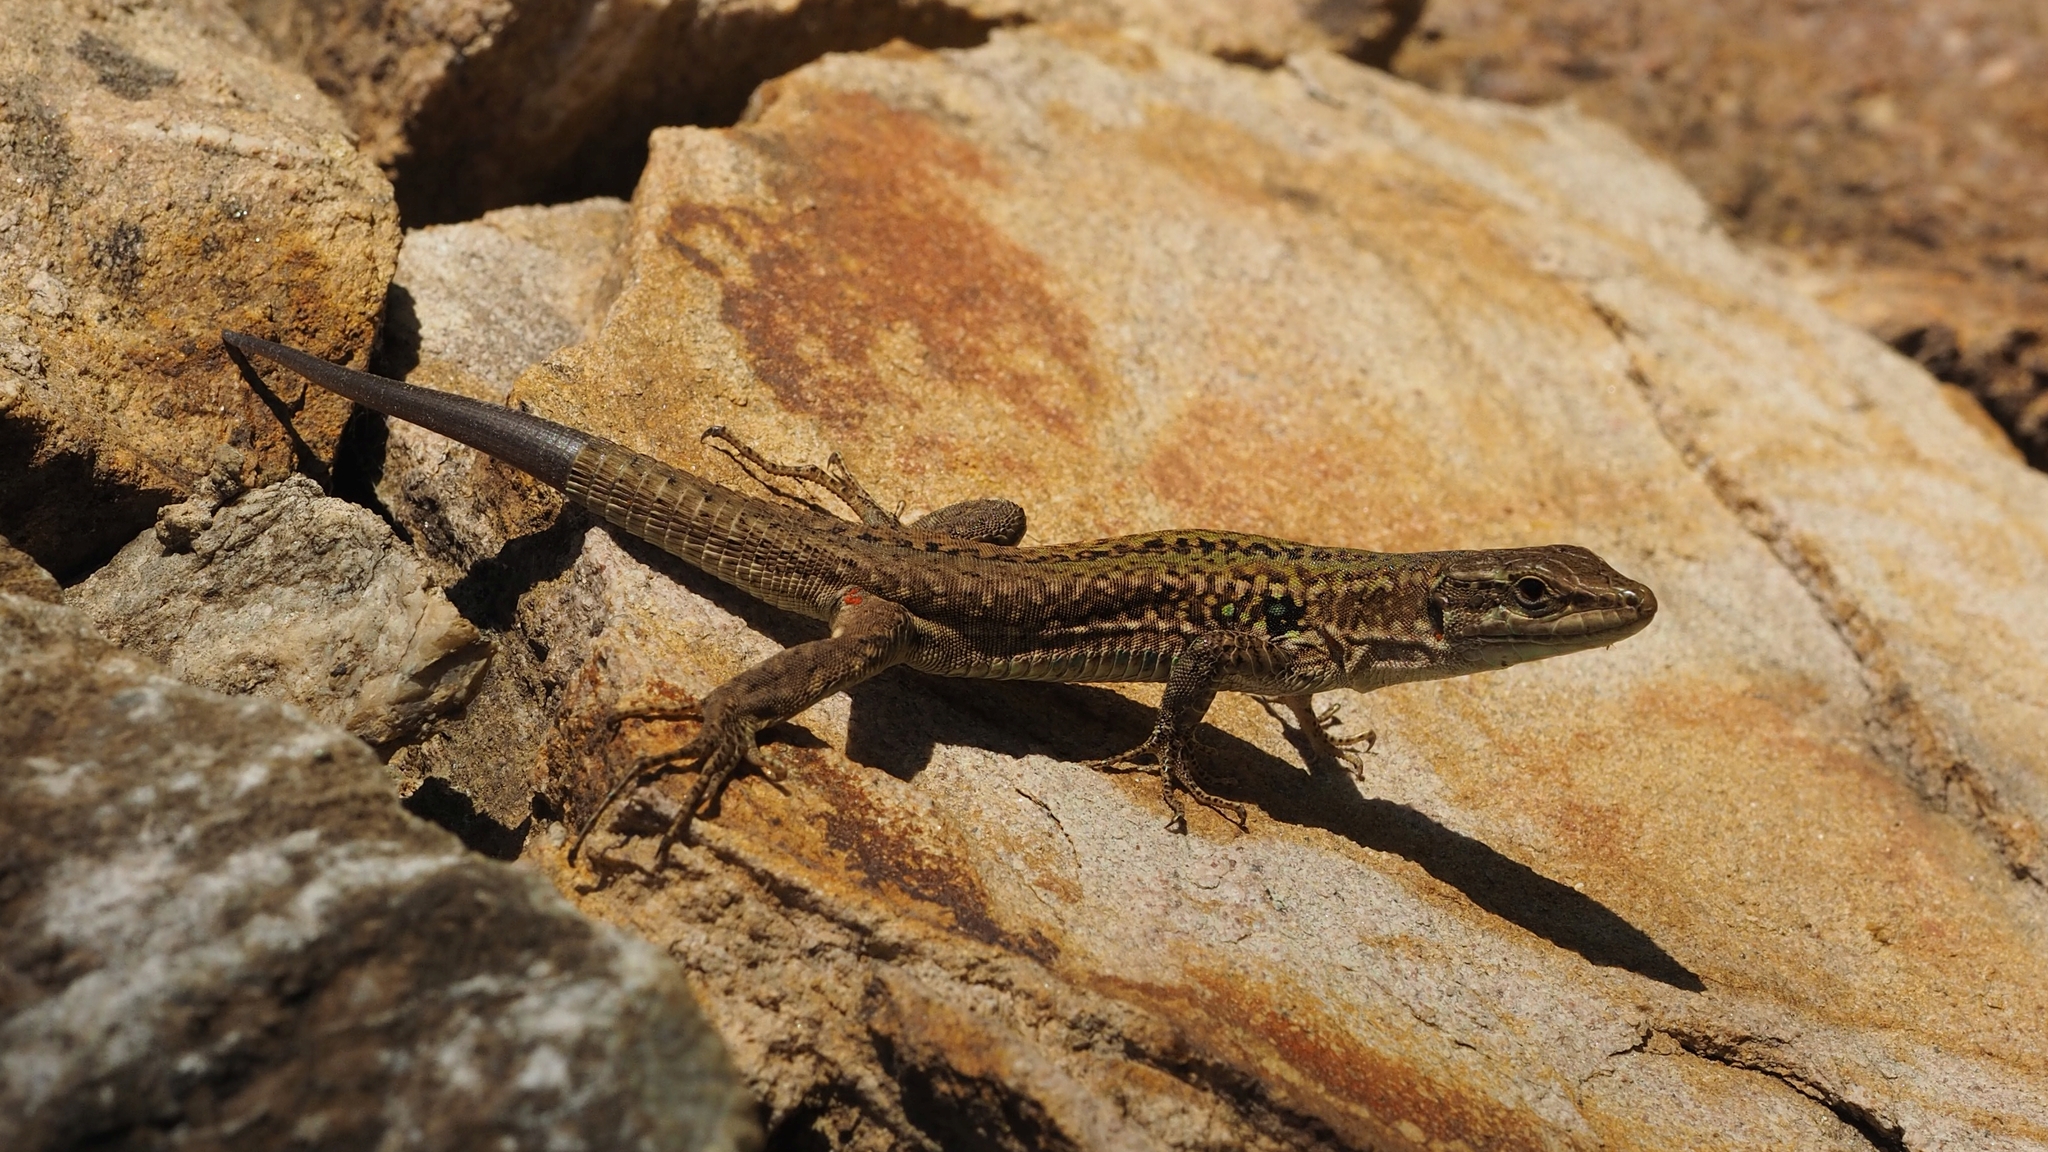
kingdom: Animalia
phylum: Chordata
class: Squamata
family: Lacertidae
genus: Podarcis
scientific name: Podarcis siculus
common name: Italian wall lizard
